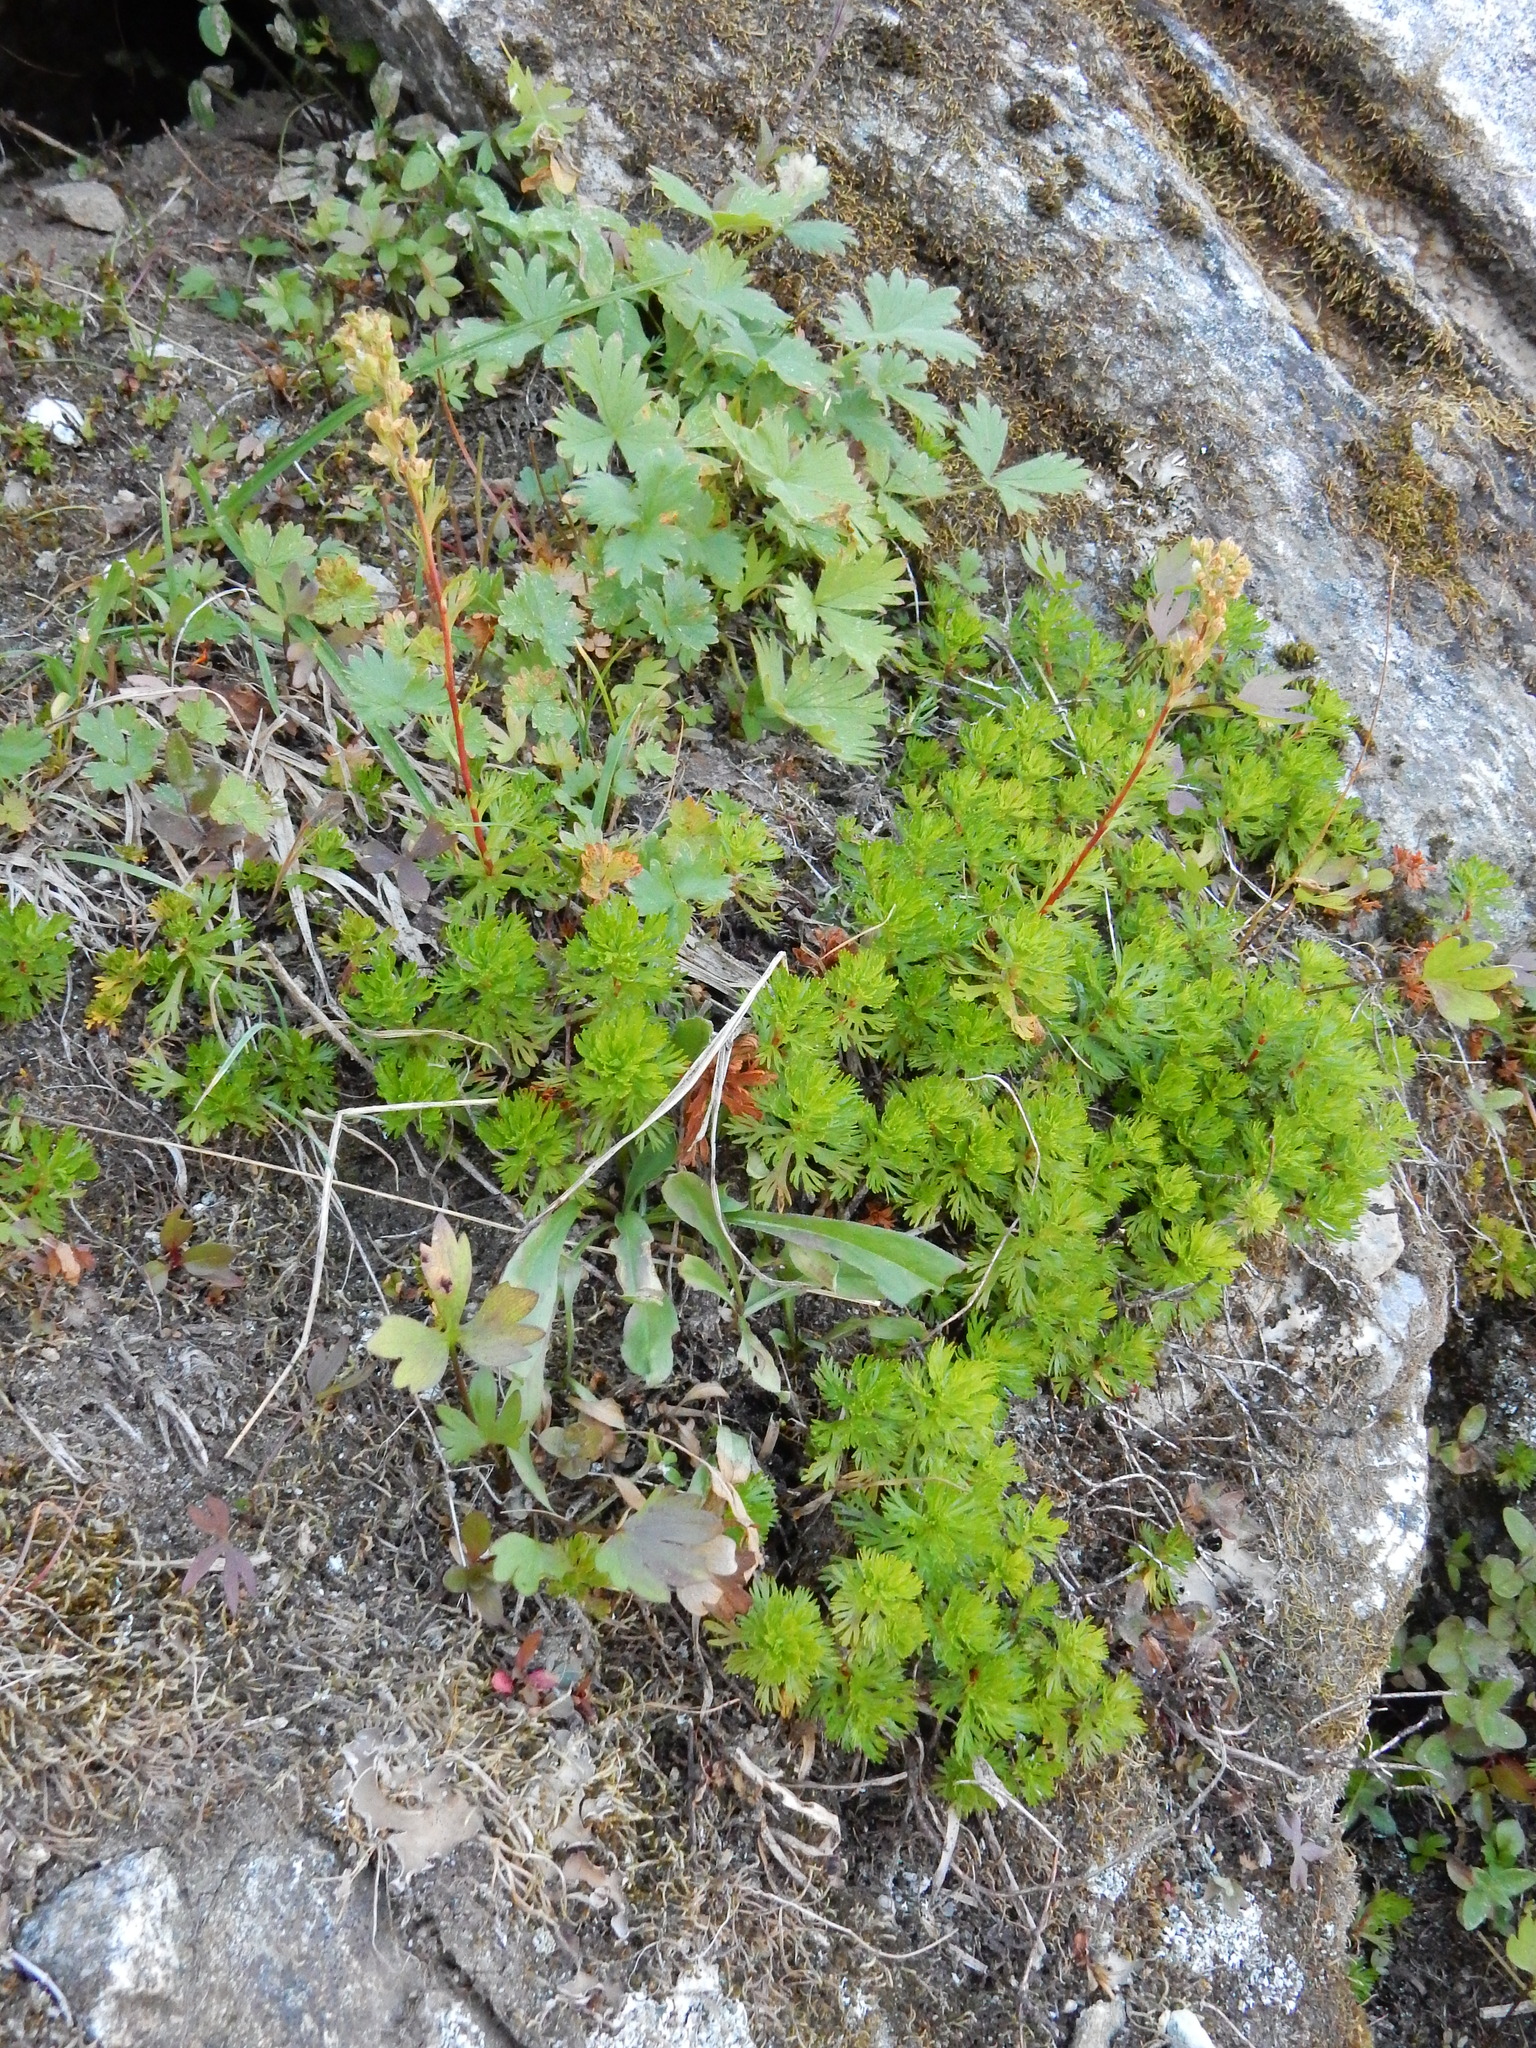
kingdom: Plantae
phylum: Tracheophyta
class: Magnoliopsida
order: Rosales
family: Rosaceae
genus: Luetkea
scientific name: Luetkea pectinata
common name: Partridgefoot
